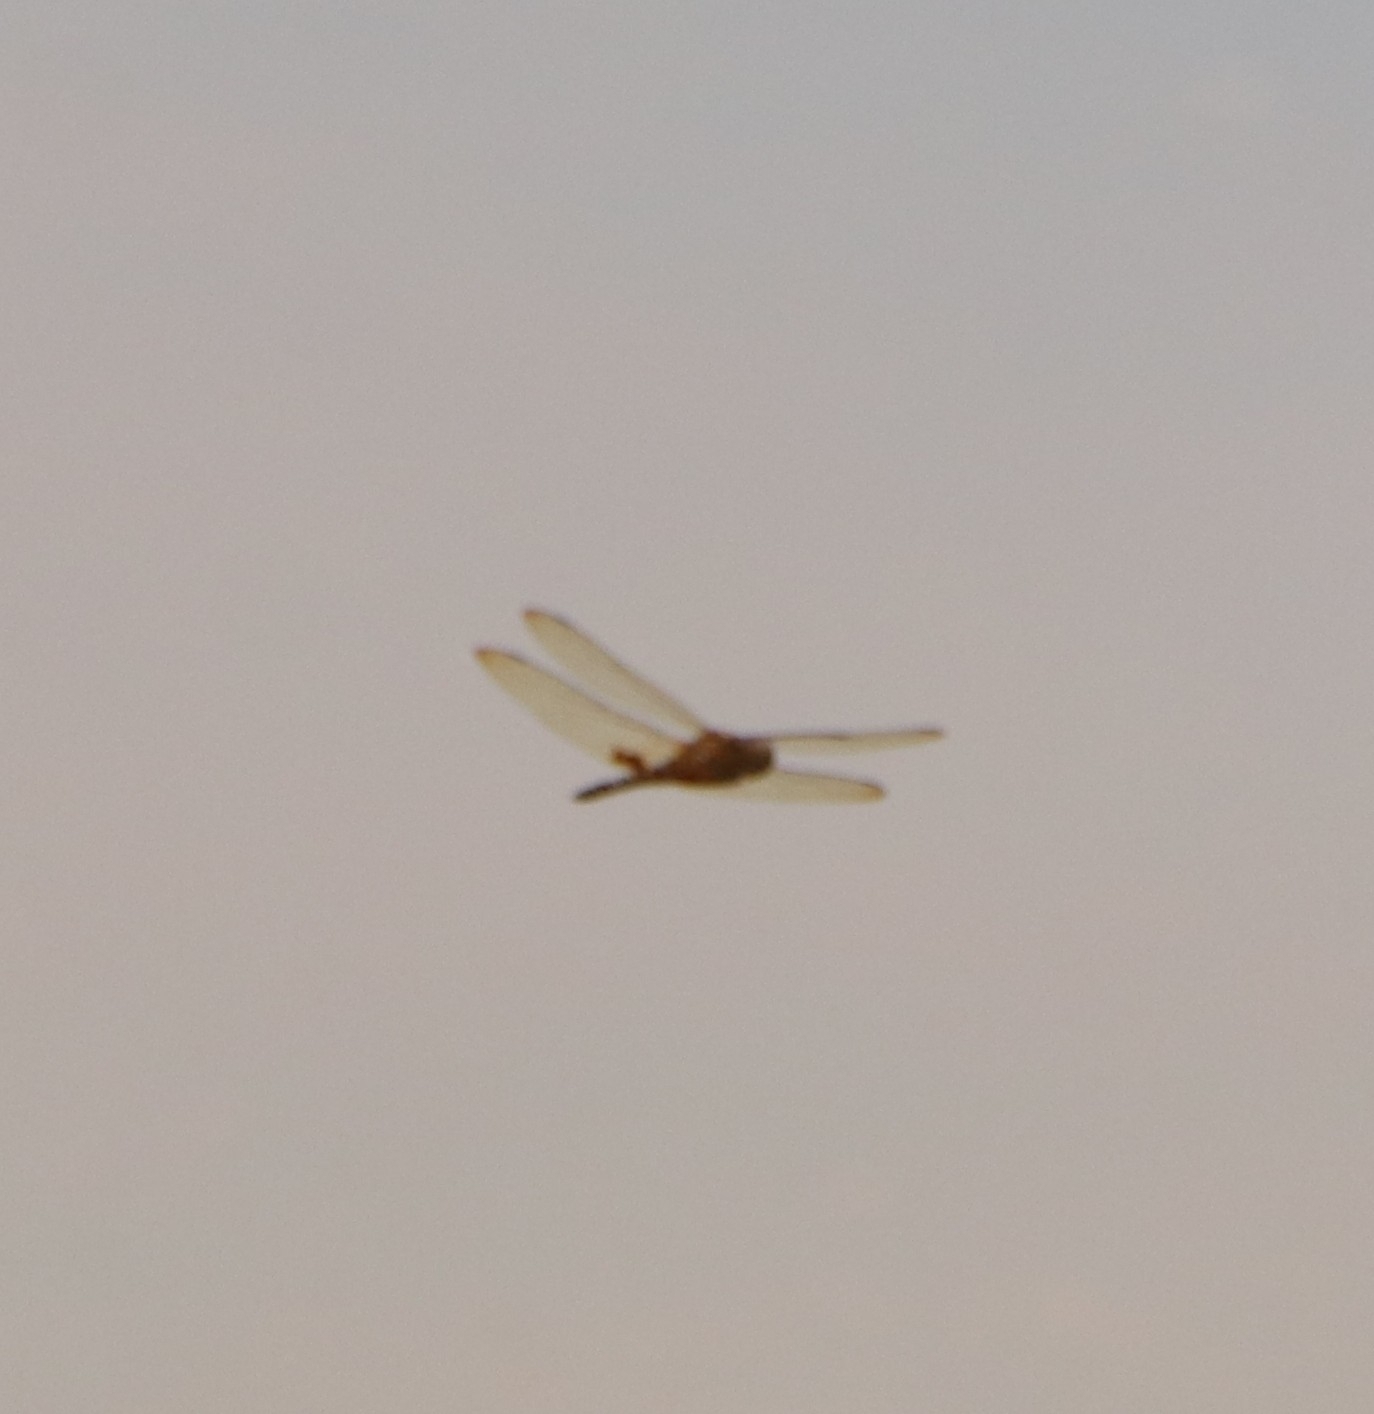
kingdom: Animalia
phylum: Arthropoda
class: Insecta
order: Odonata
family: Libellulidae
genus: Hydrobasileus
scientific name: Hydrobasileus croceus
